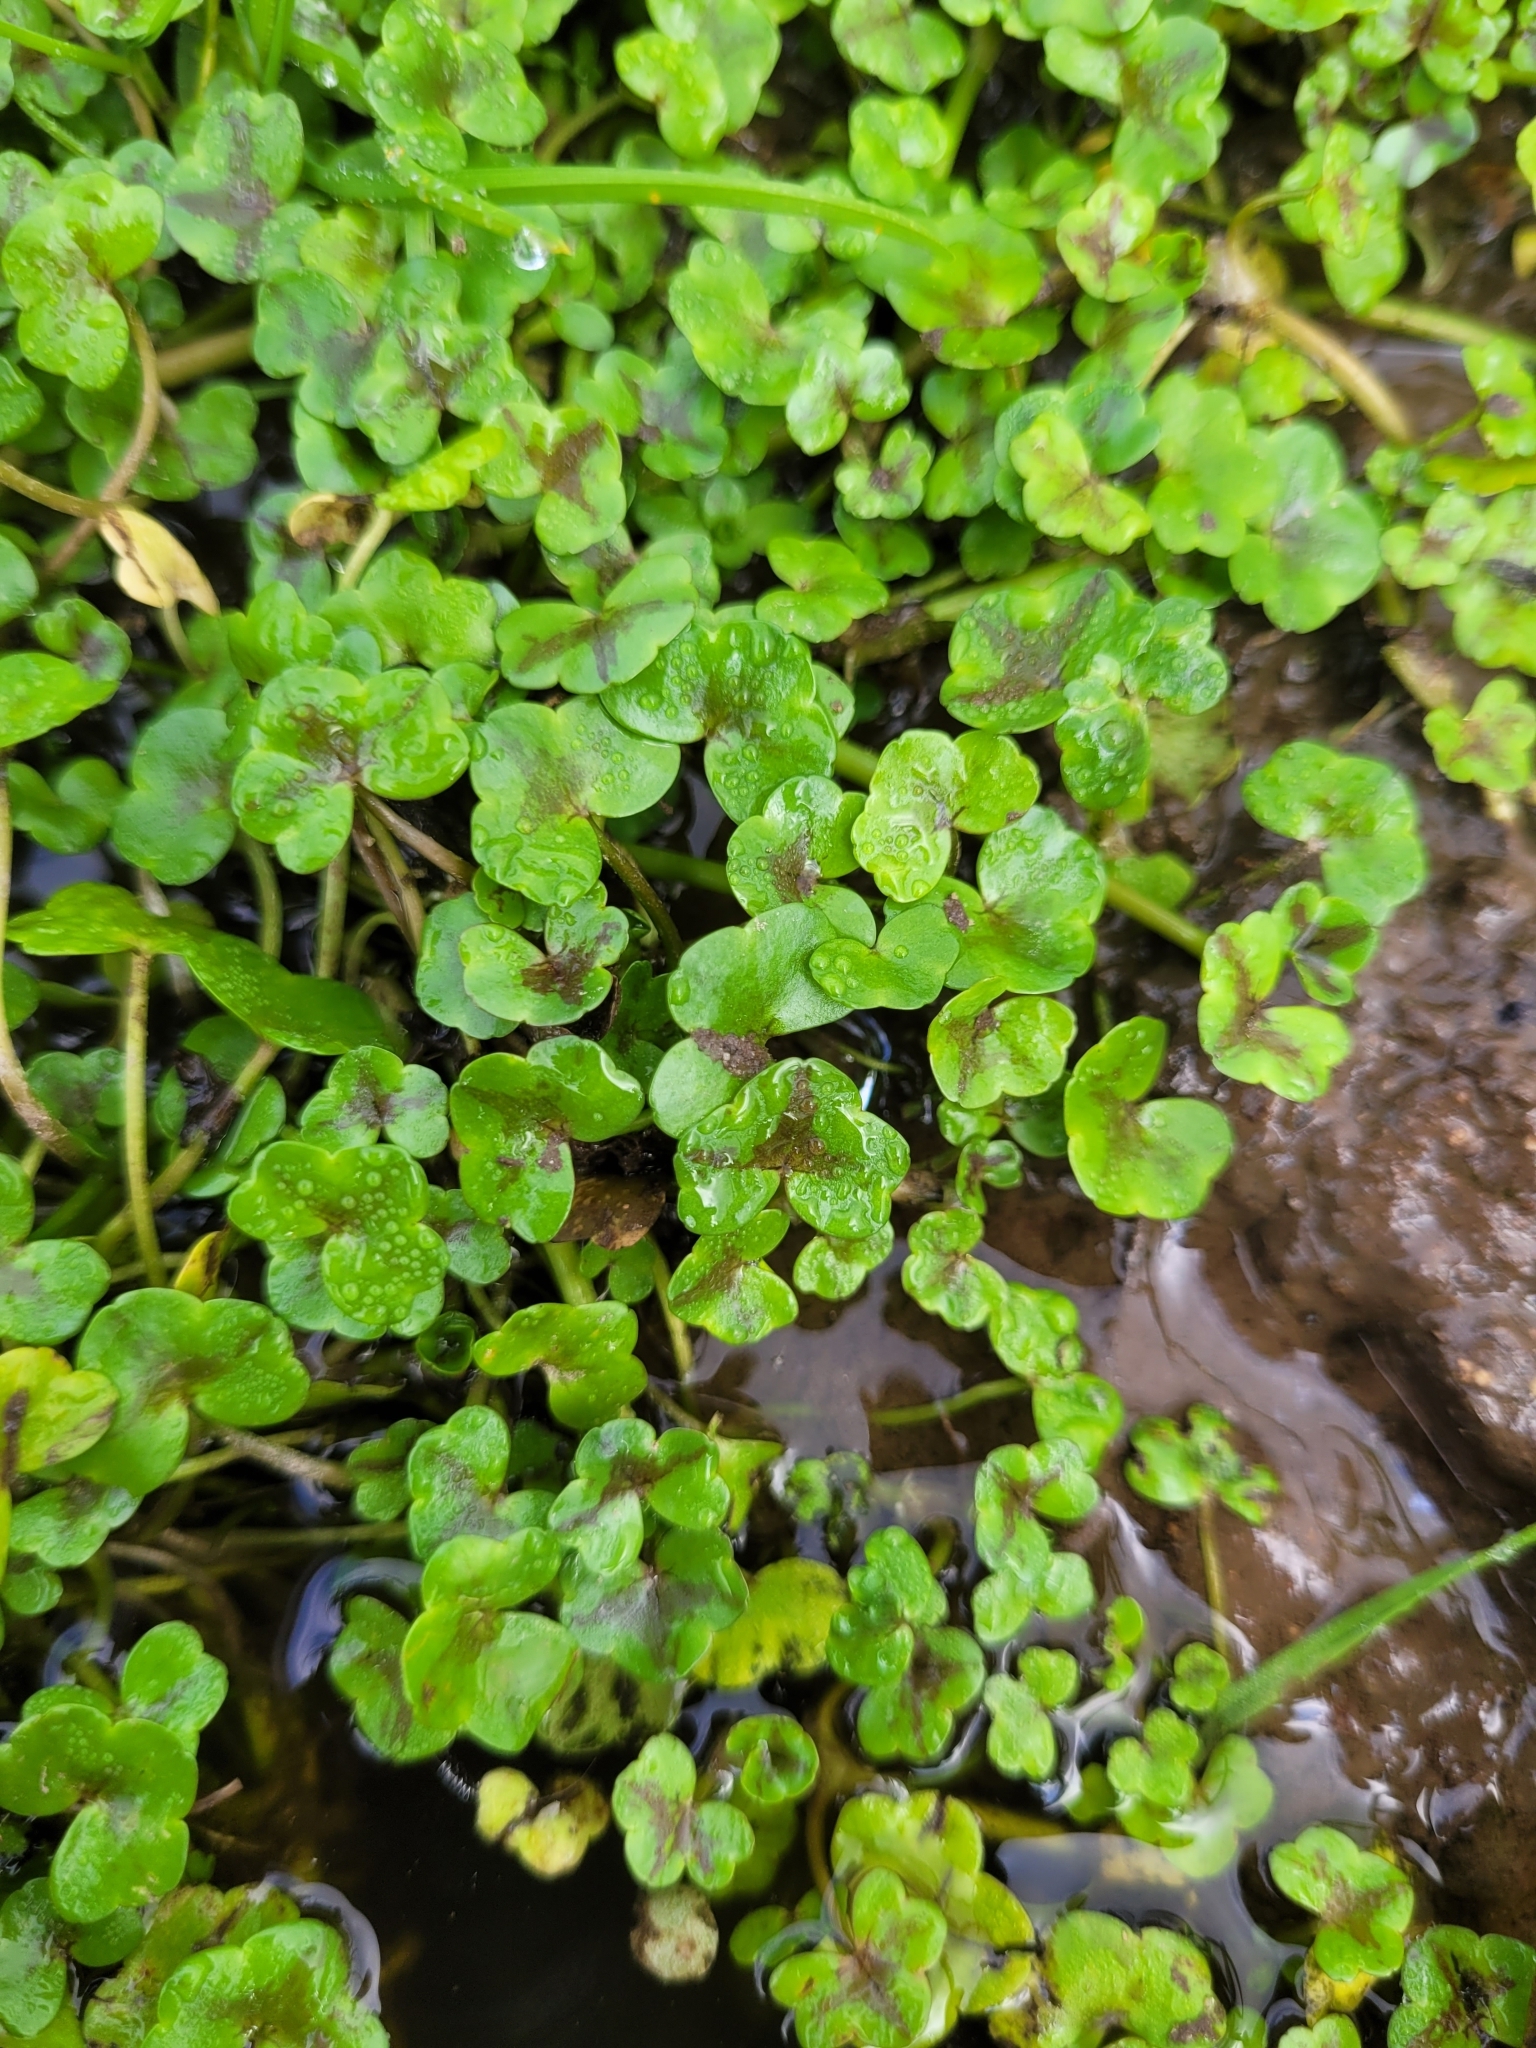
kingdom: Plantae
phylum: Tracheophyta
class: Magnoliopsida
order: Ranunculales
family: Ranunculaceae
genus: Ranunculus
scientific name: Ranunculus hederaceus
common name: Ivy-leaved crowfoot
